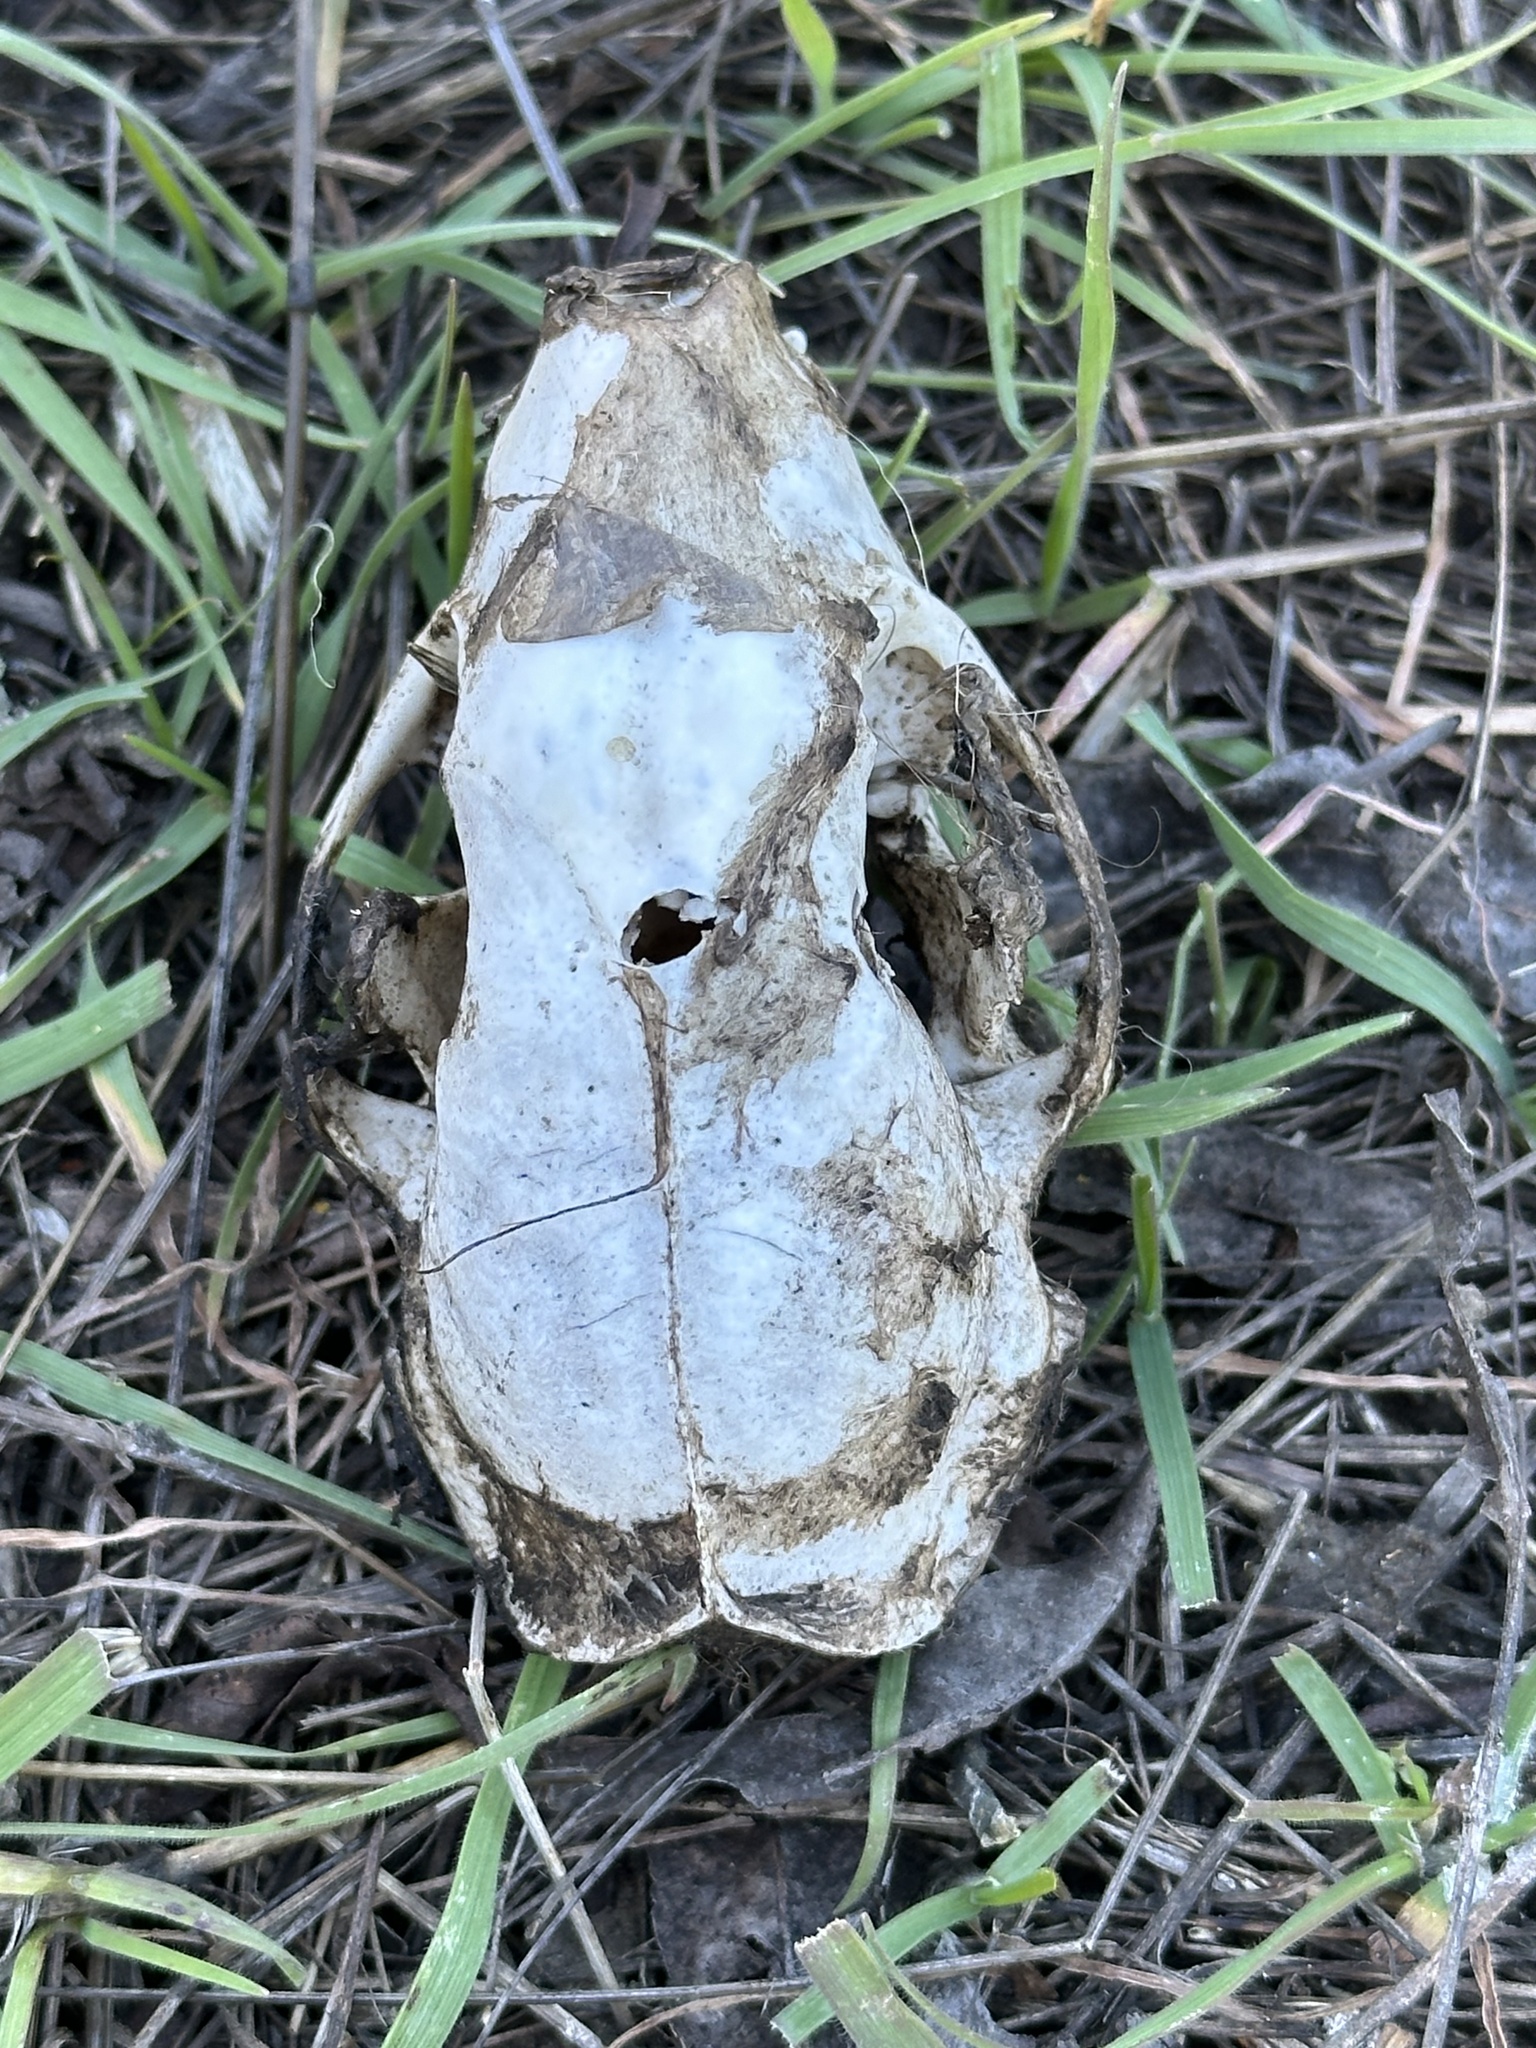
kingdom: Animalia
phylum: Chordata
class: Mammalia
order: Carnivora
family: Mephitidae
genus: Mephitis
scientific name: Mephitis mephitis
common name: Striped skunk
